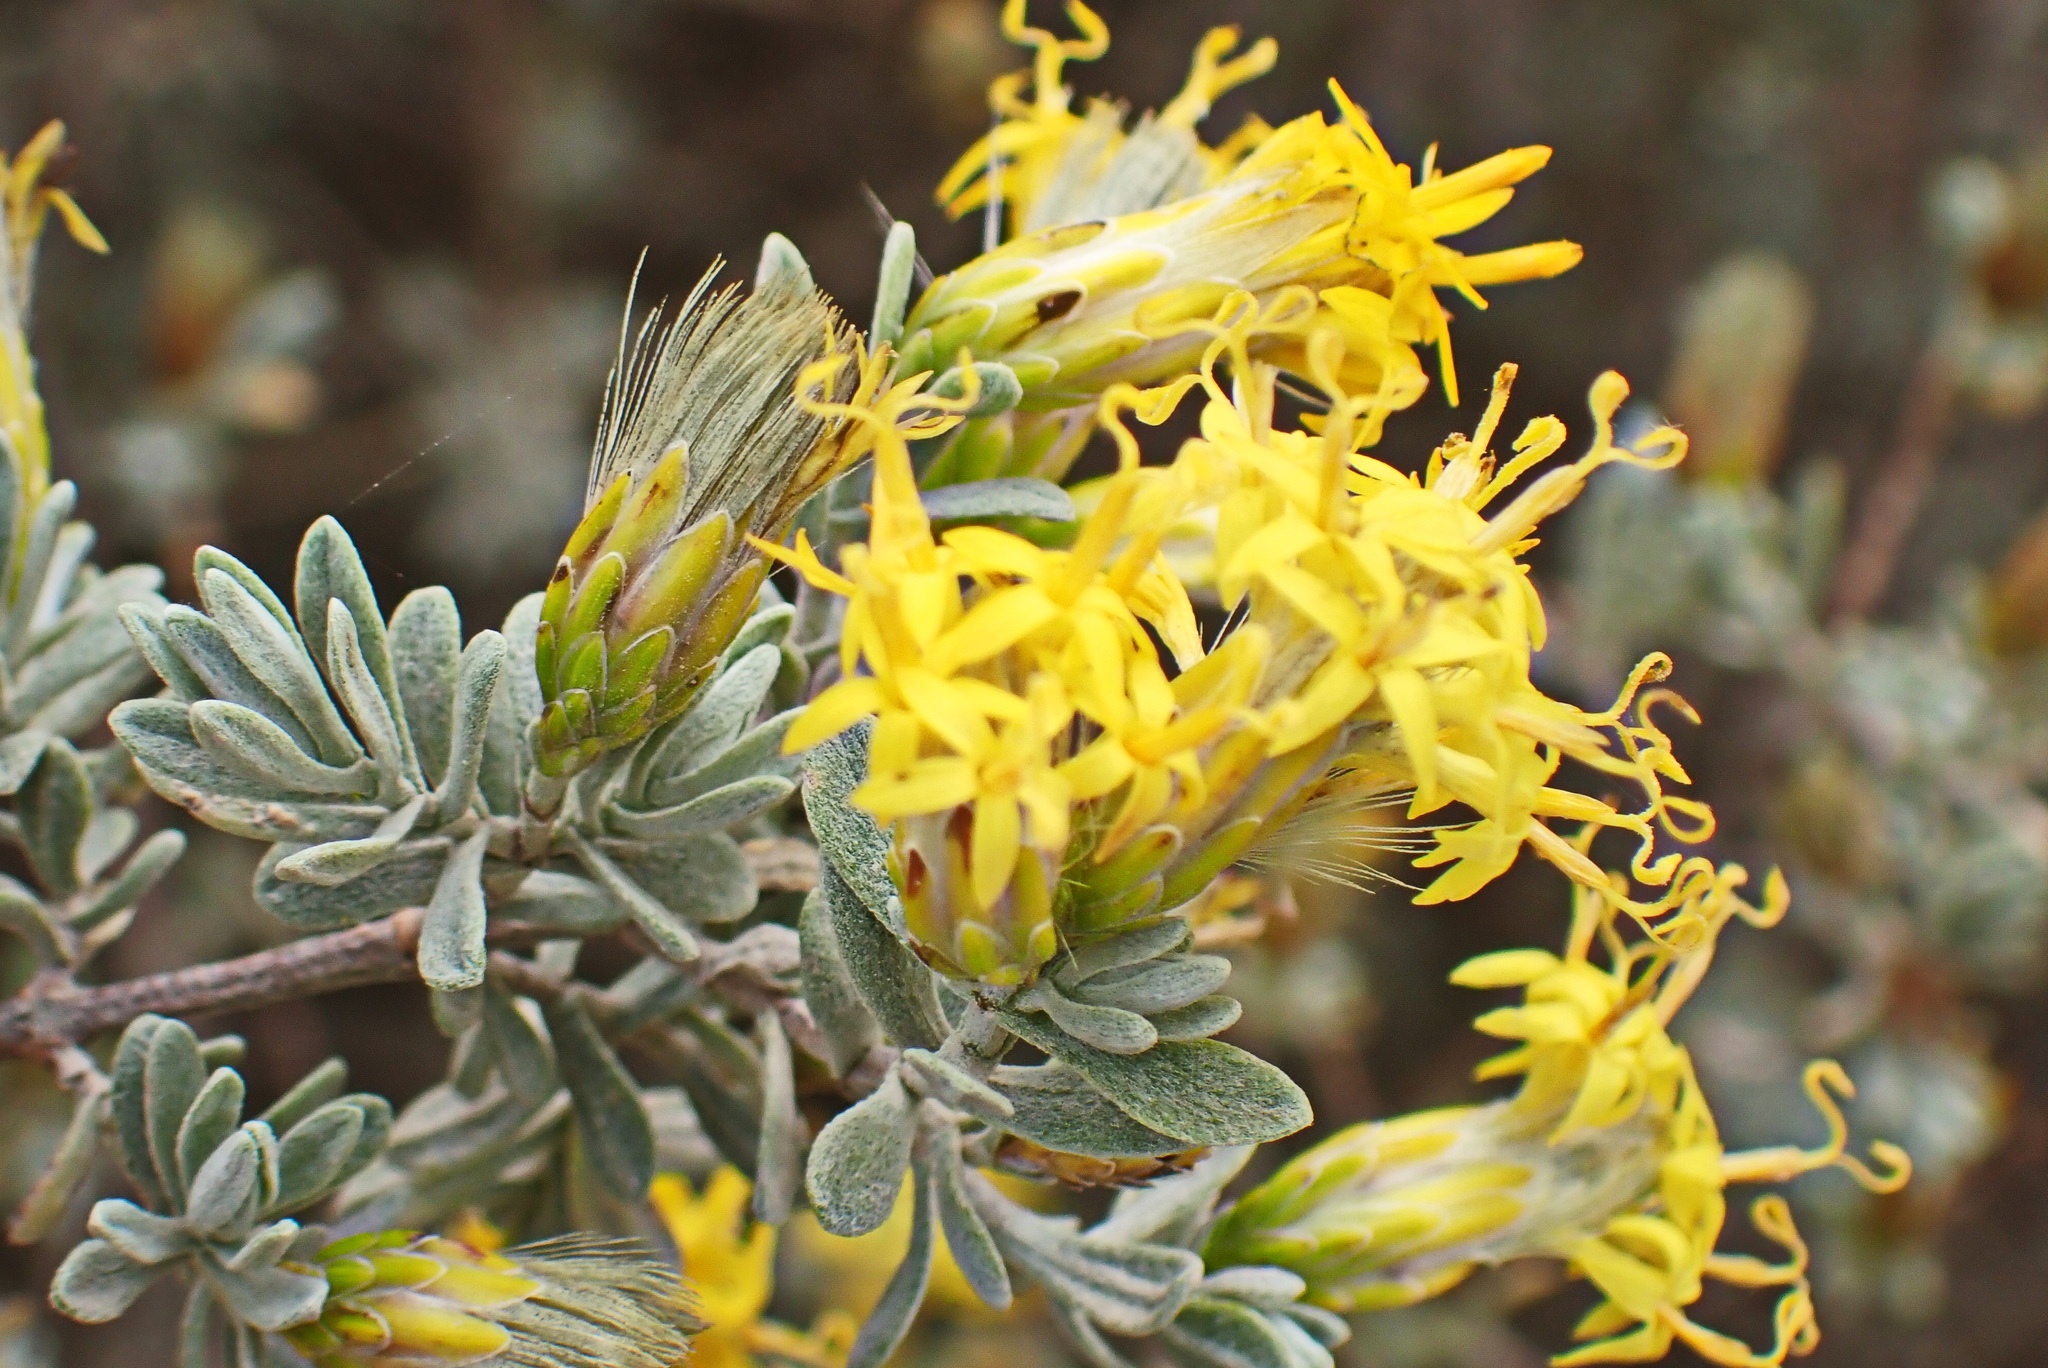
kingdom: Plantae
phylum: Tracheophyta
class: Magnoliopsida
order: Asterales
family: Asteraceae
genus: Pteronia
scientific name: Pteronia incana
